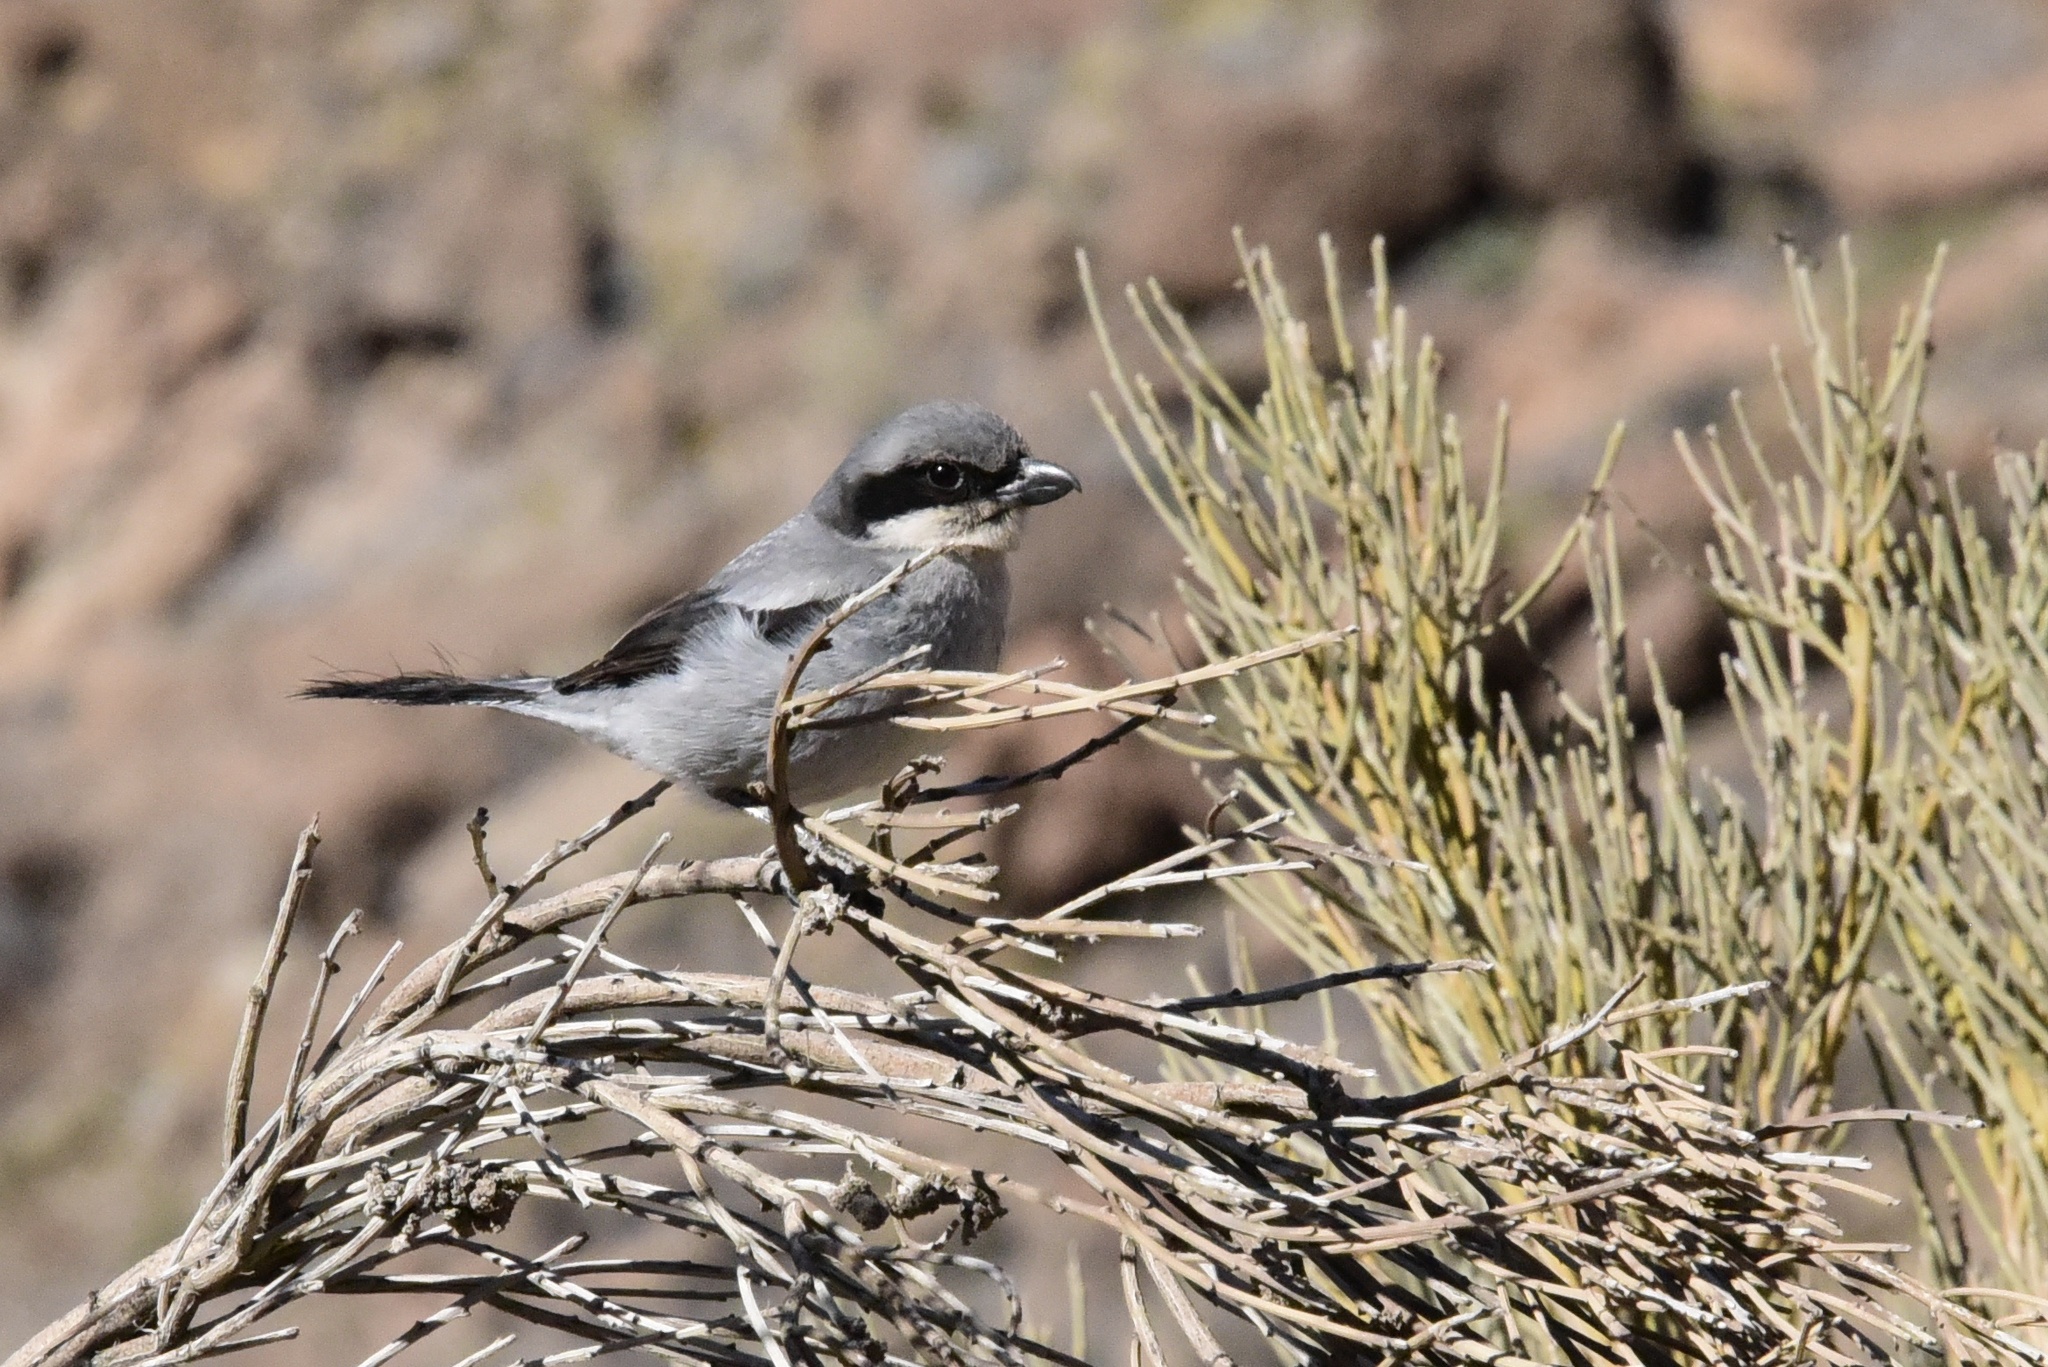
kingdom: Animalia
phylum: Chordata
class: Aves
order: Passeriformes
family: Laniidae
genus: Lanius
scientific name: Lanius excubitor
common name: Great grey shrike
